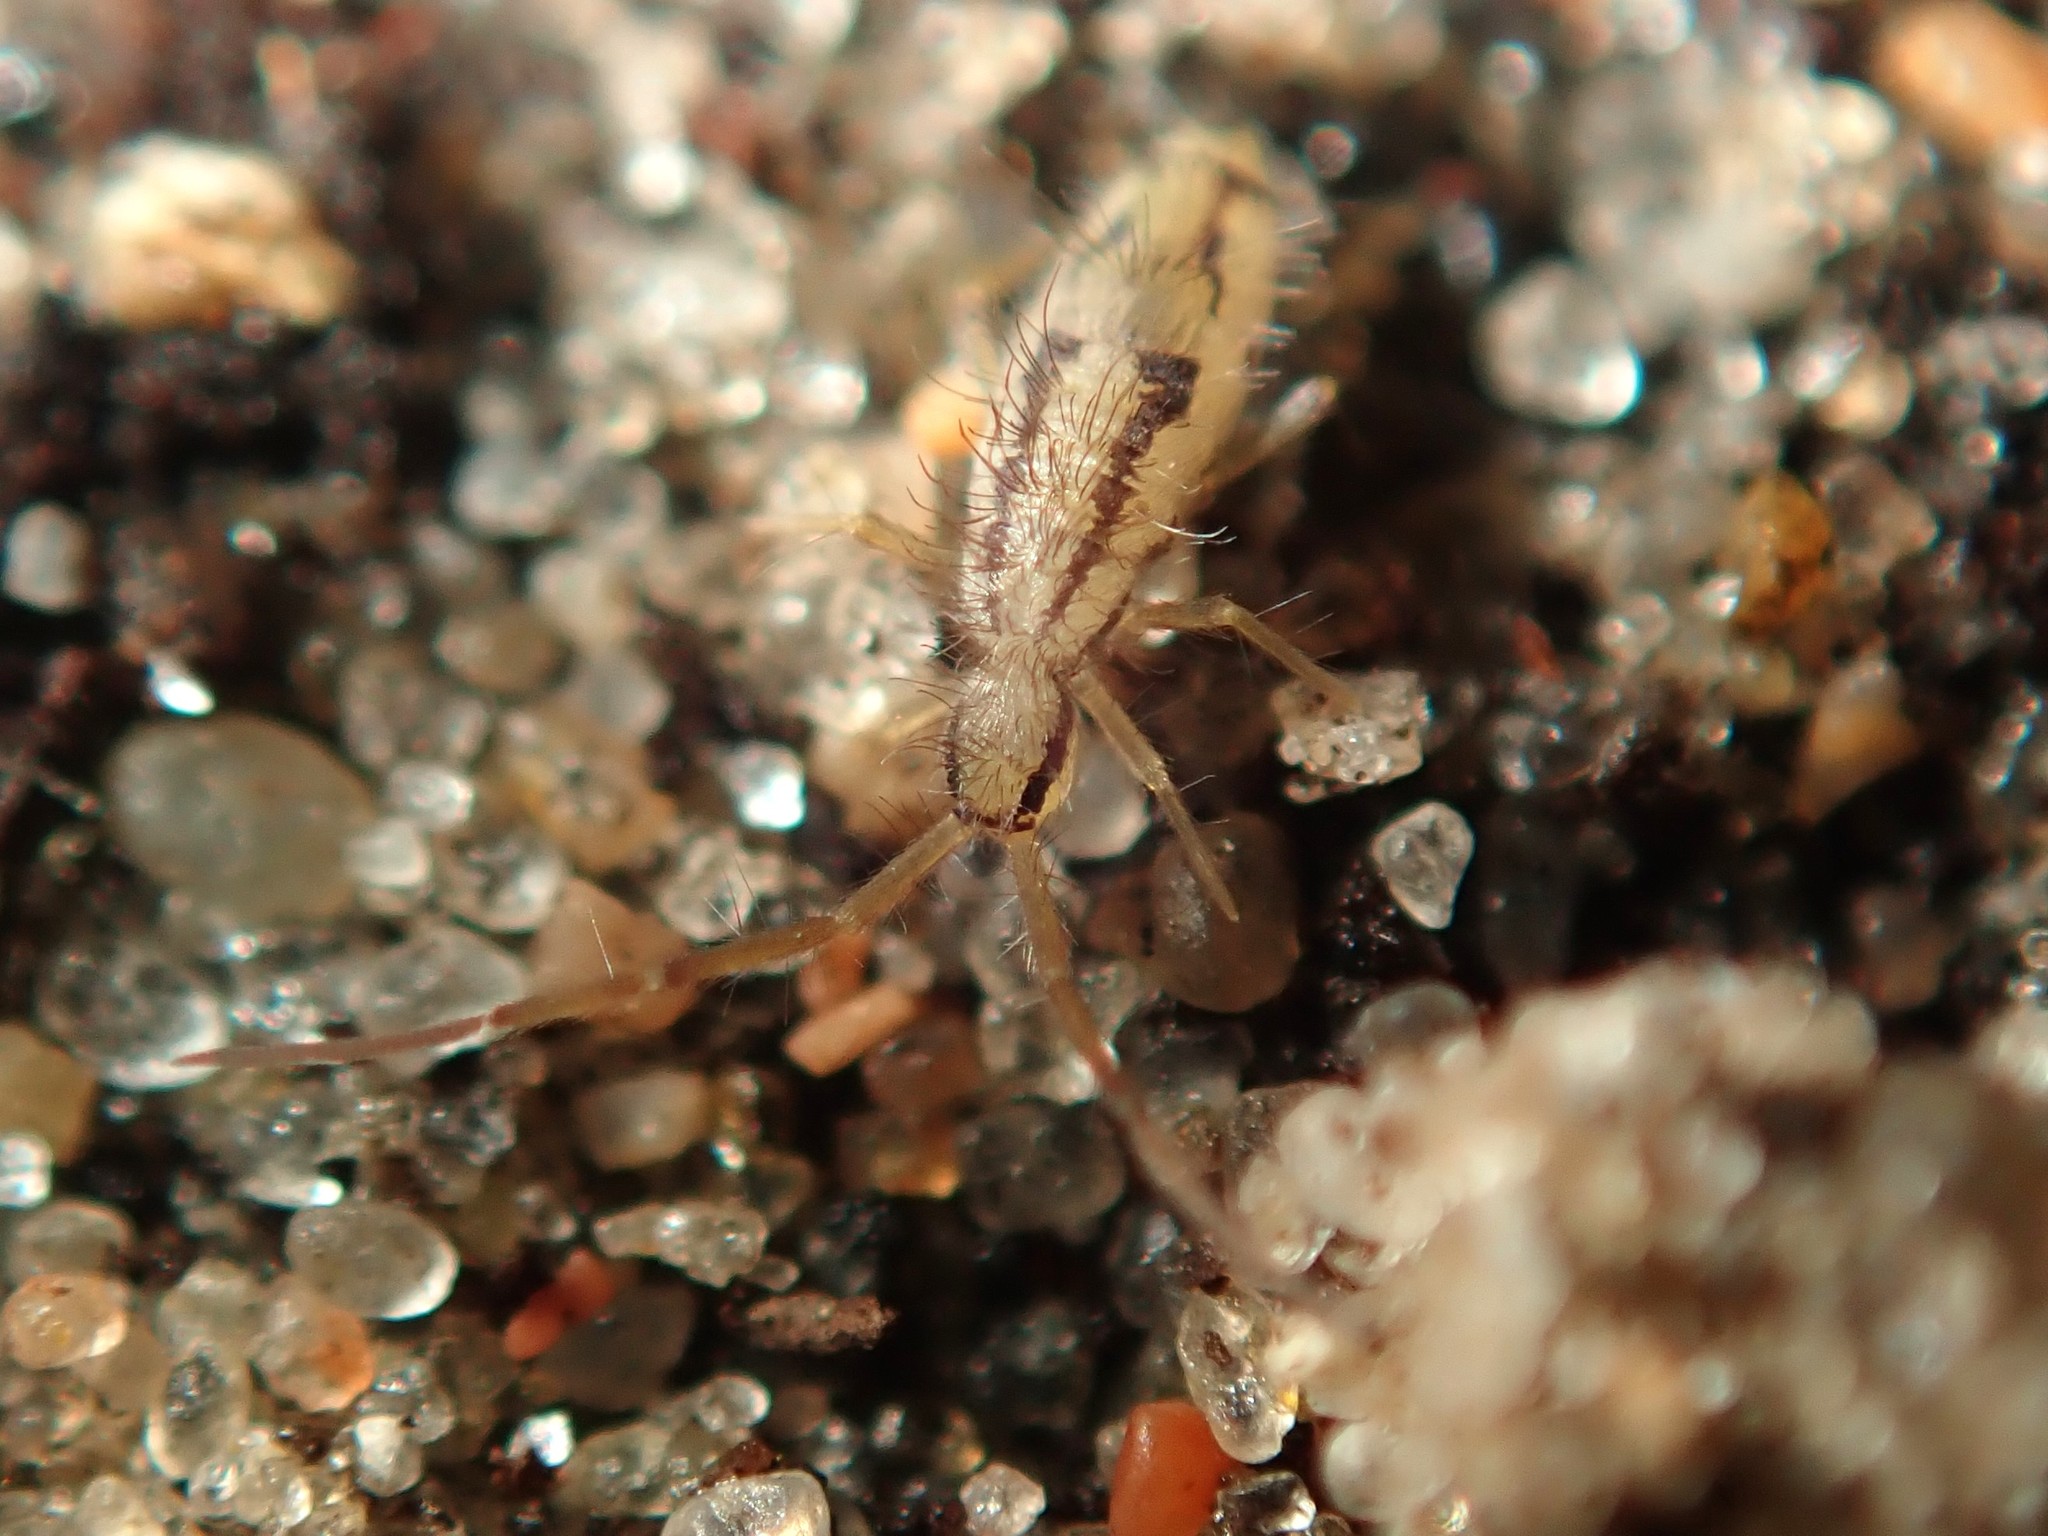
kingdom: Animalia
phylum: Arthropoda
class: Collembola
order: Entomobryomorpha
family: Entomobryidae
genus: Entomobrya
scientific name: Entomobrya muscorum
